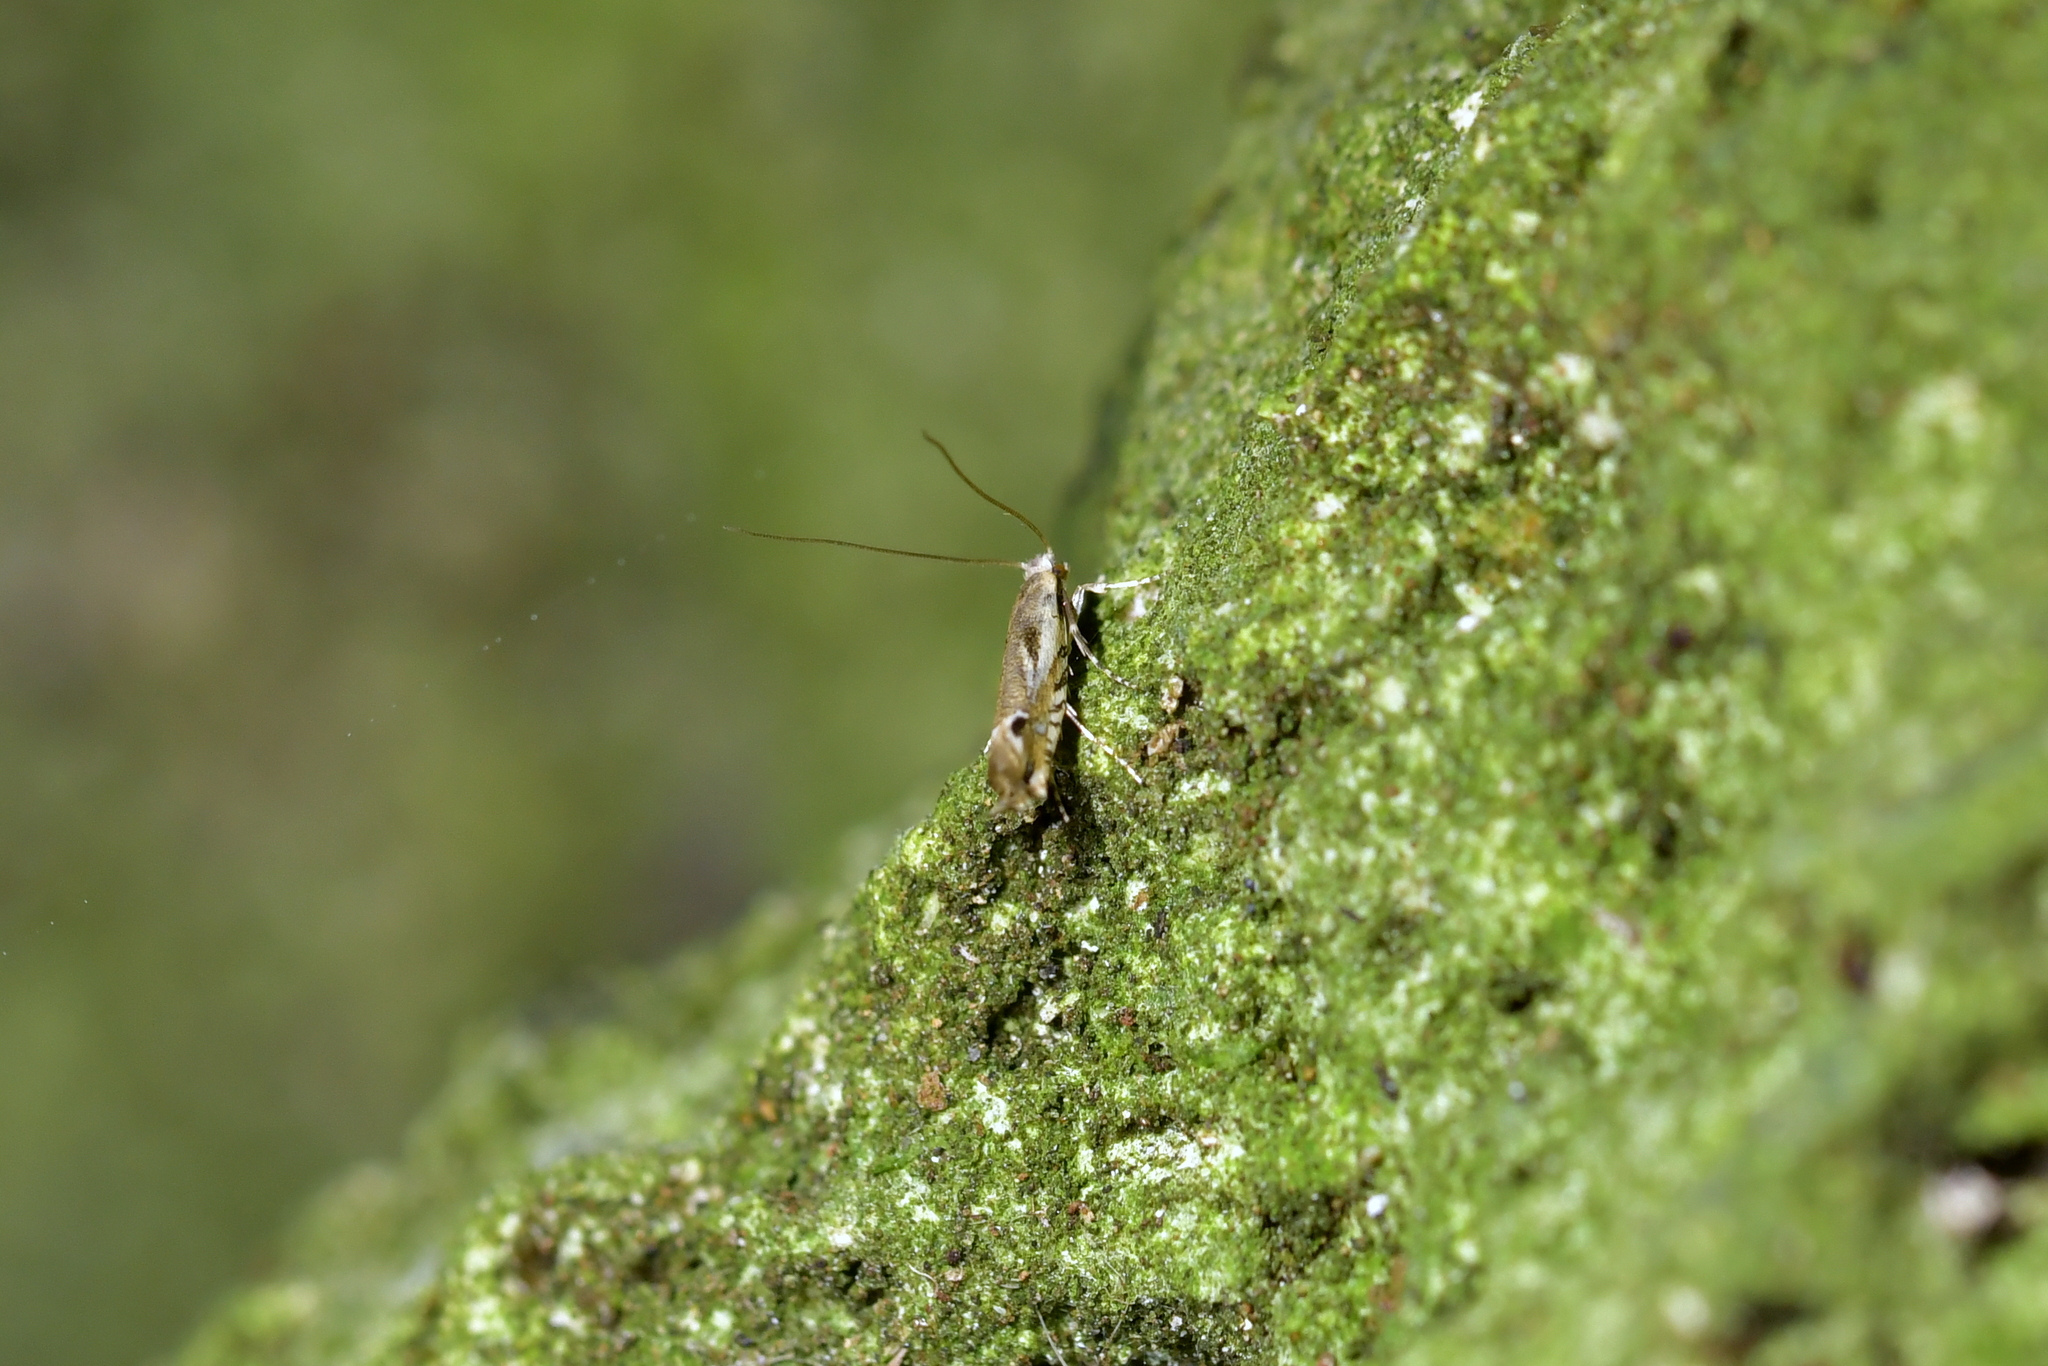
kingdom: Animalia
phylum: Arthropoda
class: Insecta
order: Lepidoptera
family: Tineidae
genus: Erechthias
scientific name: Erechthias decoranda
